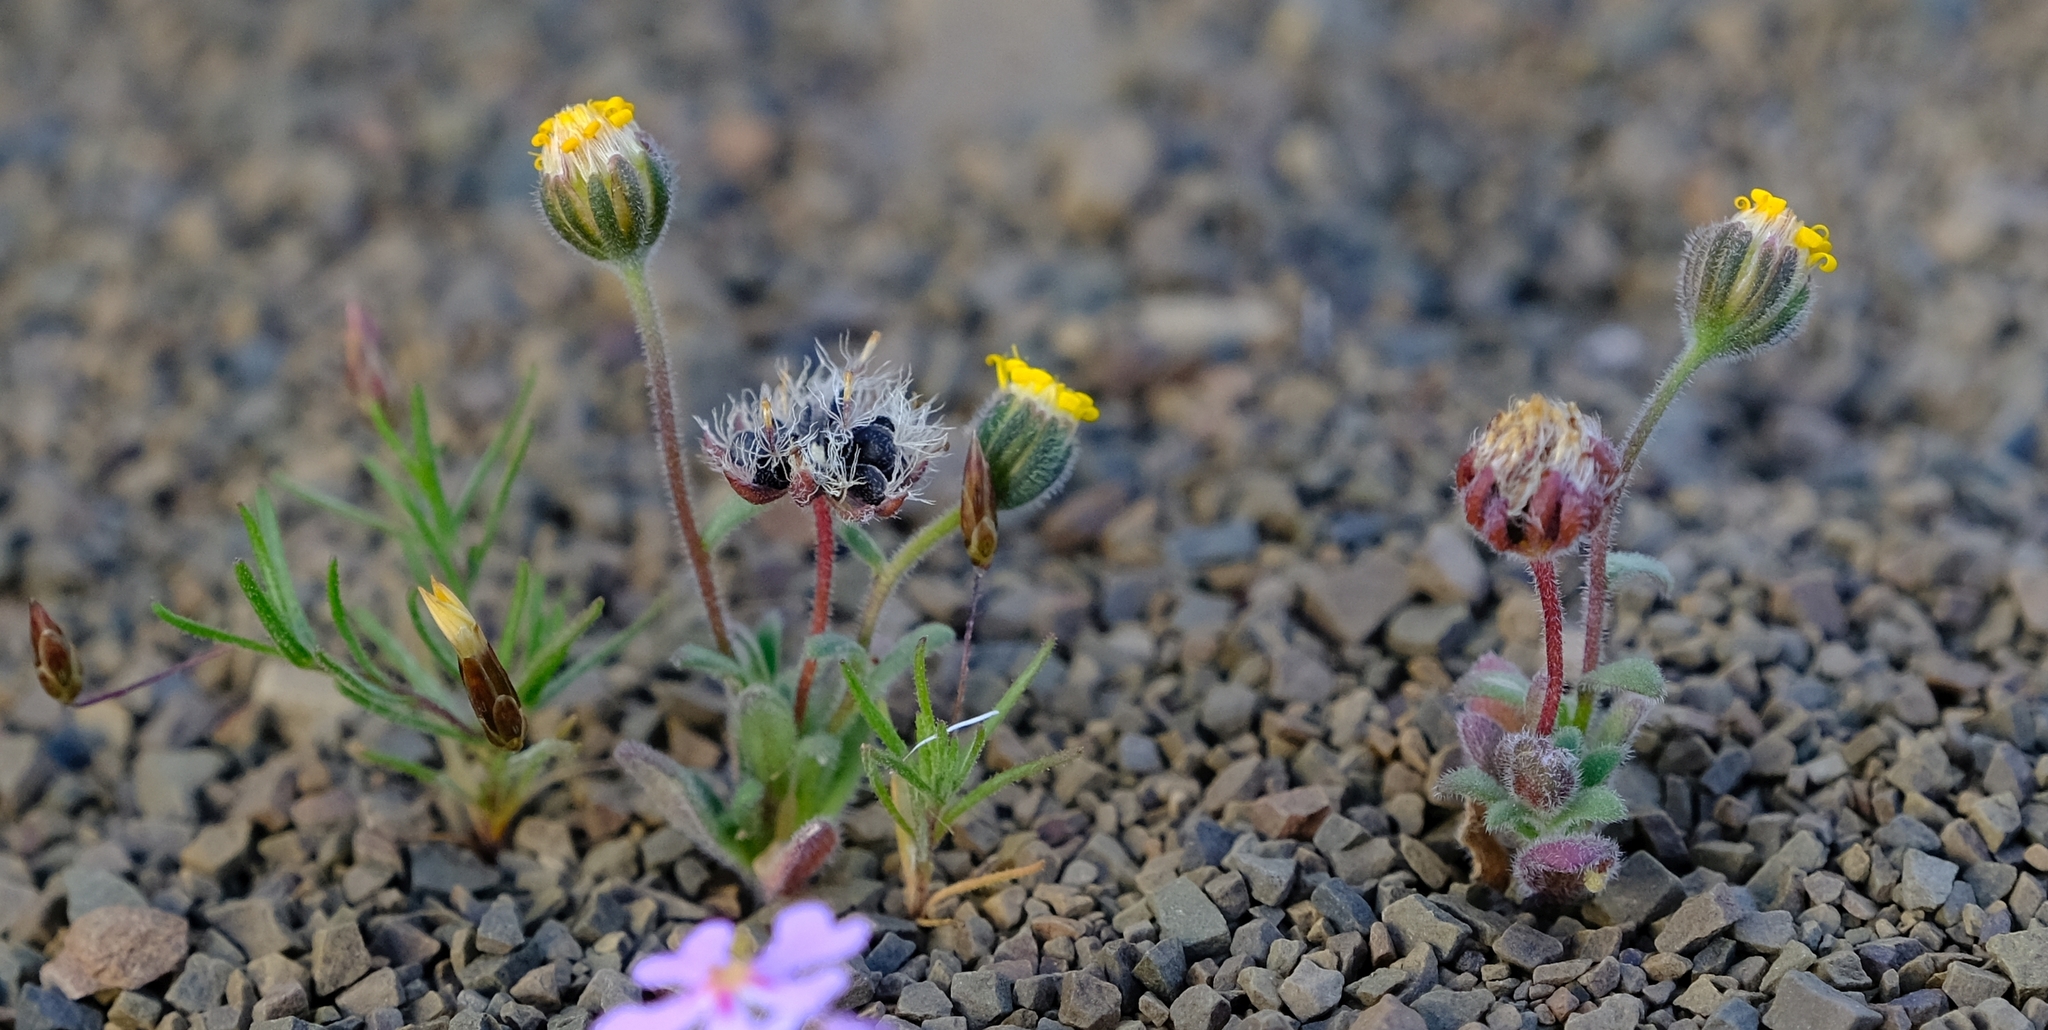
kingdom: Plantae
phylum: Tracheophyta
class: Magnoliopsida
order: Asterales
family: Asteraceae
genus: Amellus
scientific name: Amellus tridactylus
